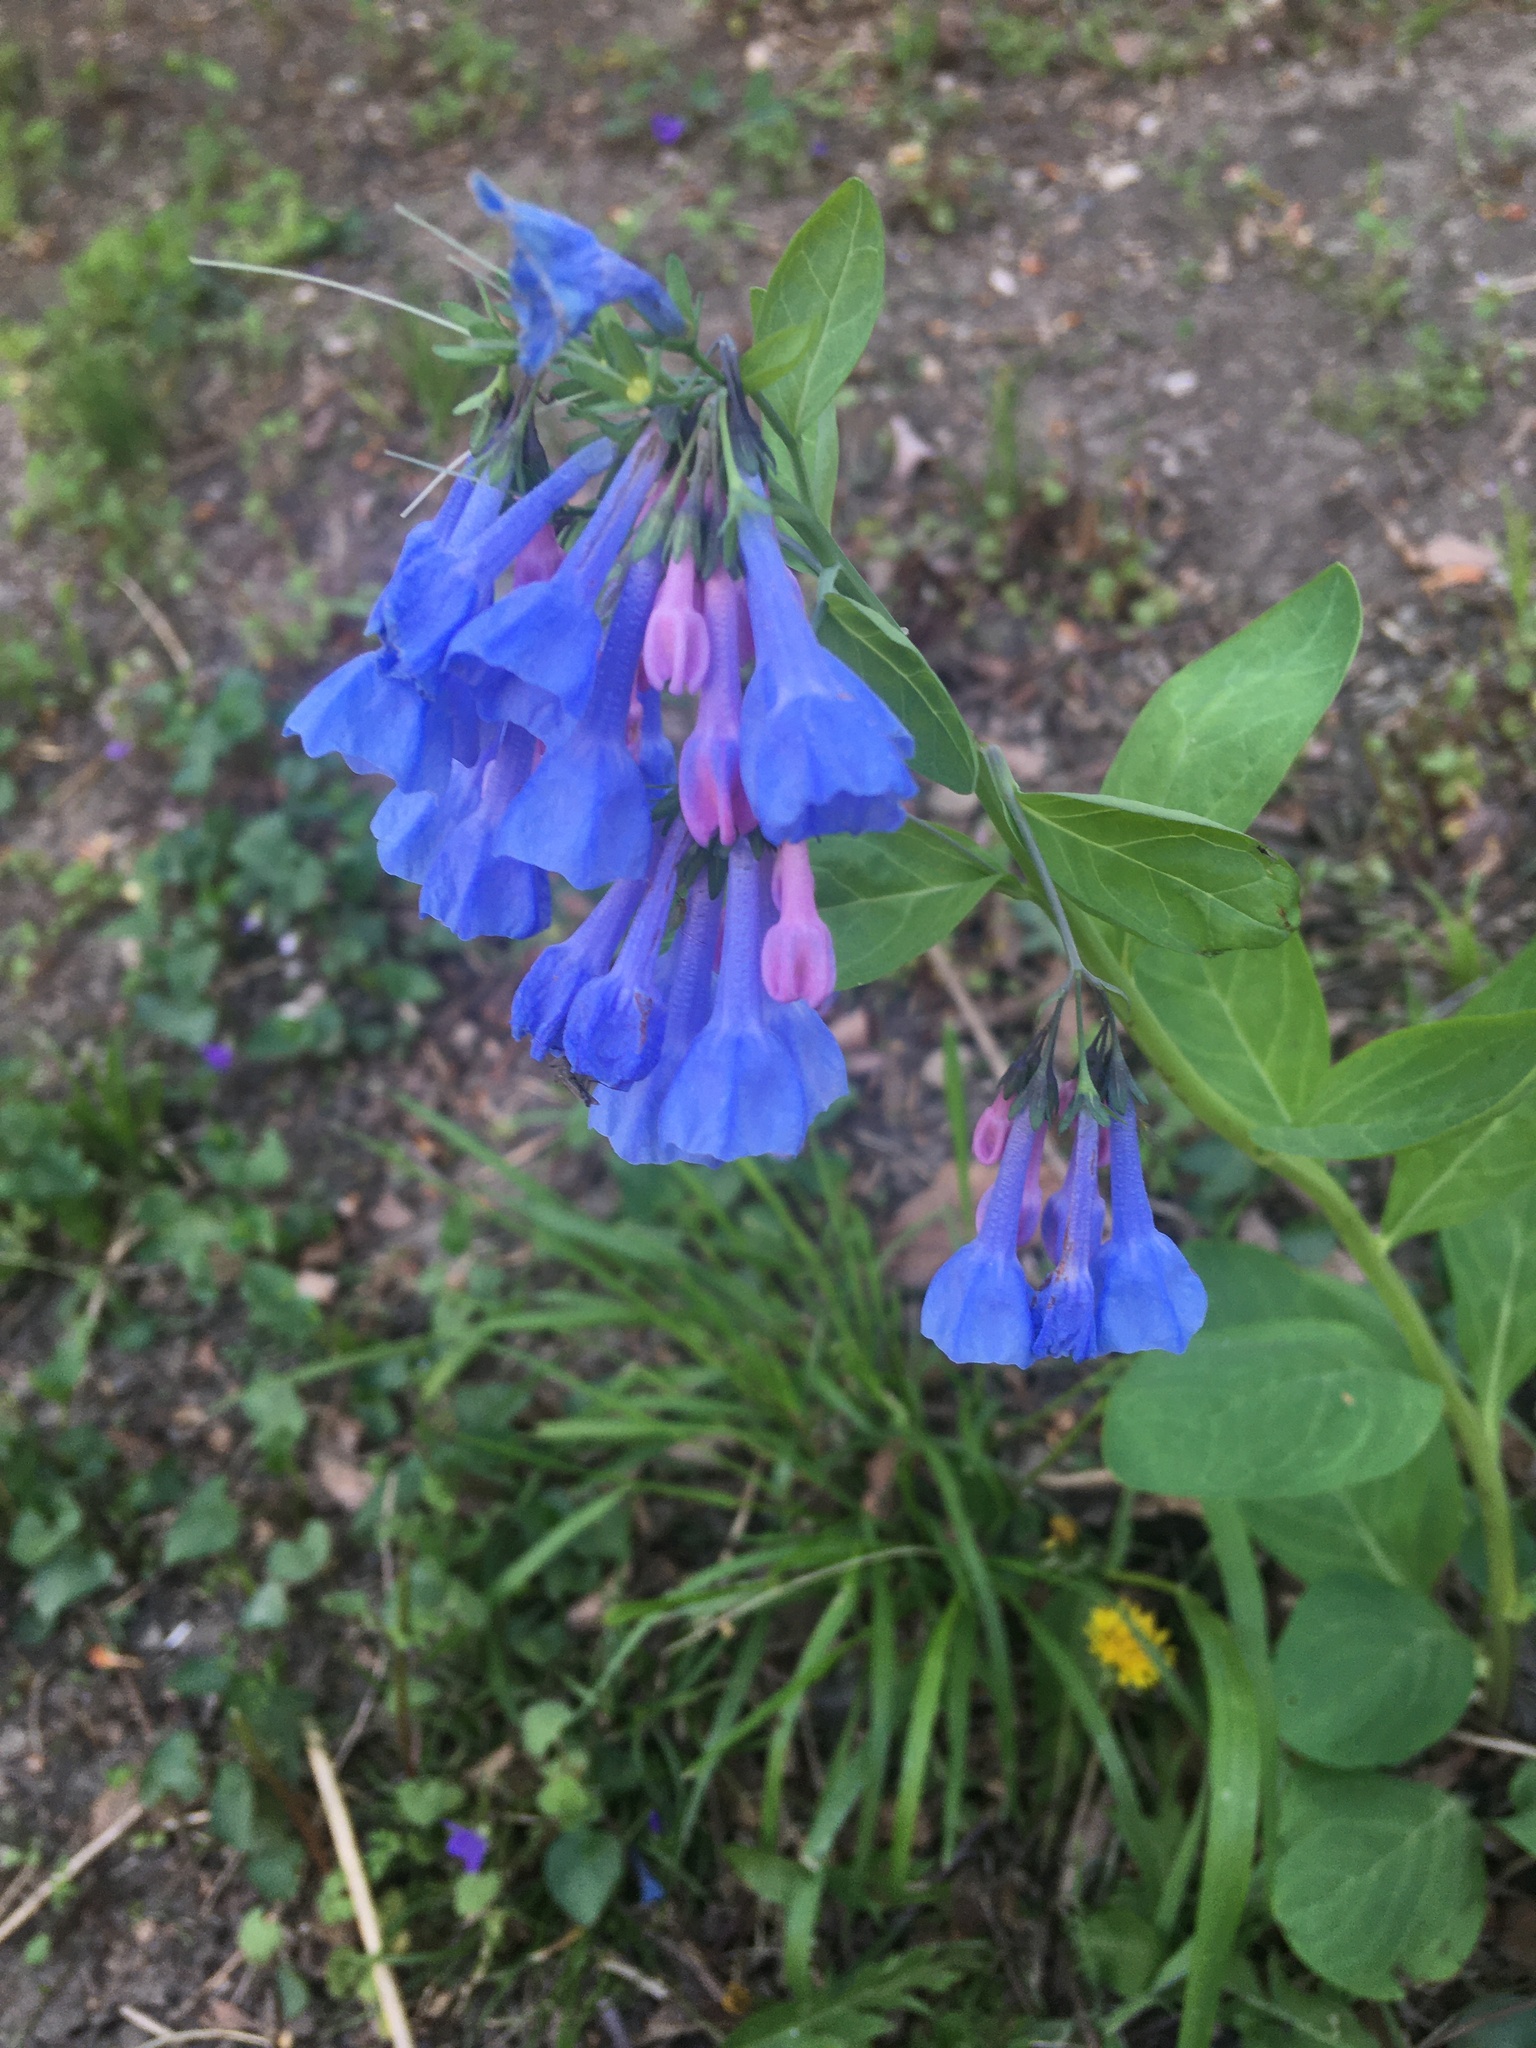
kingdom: Plantae
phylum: Tracheophyta
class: Magnoliopsida
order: Boraginales
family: Boraginaceae
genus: Mertensia
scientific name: Mertensia virginica
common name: Virginia bluebells
